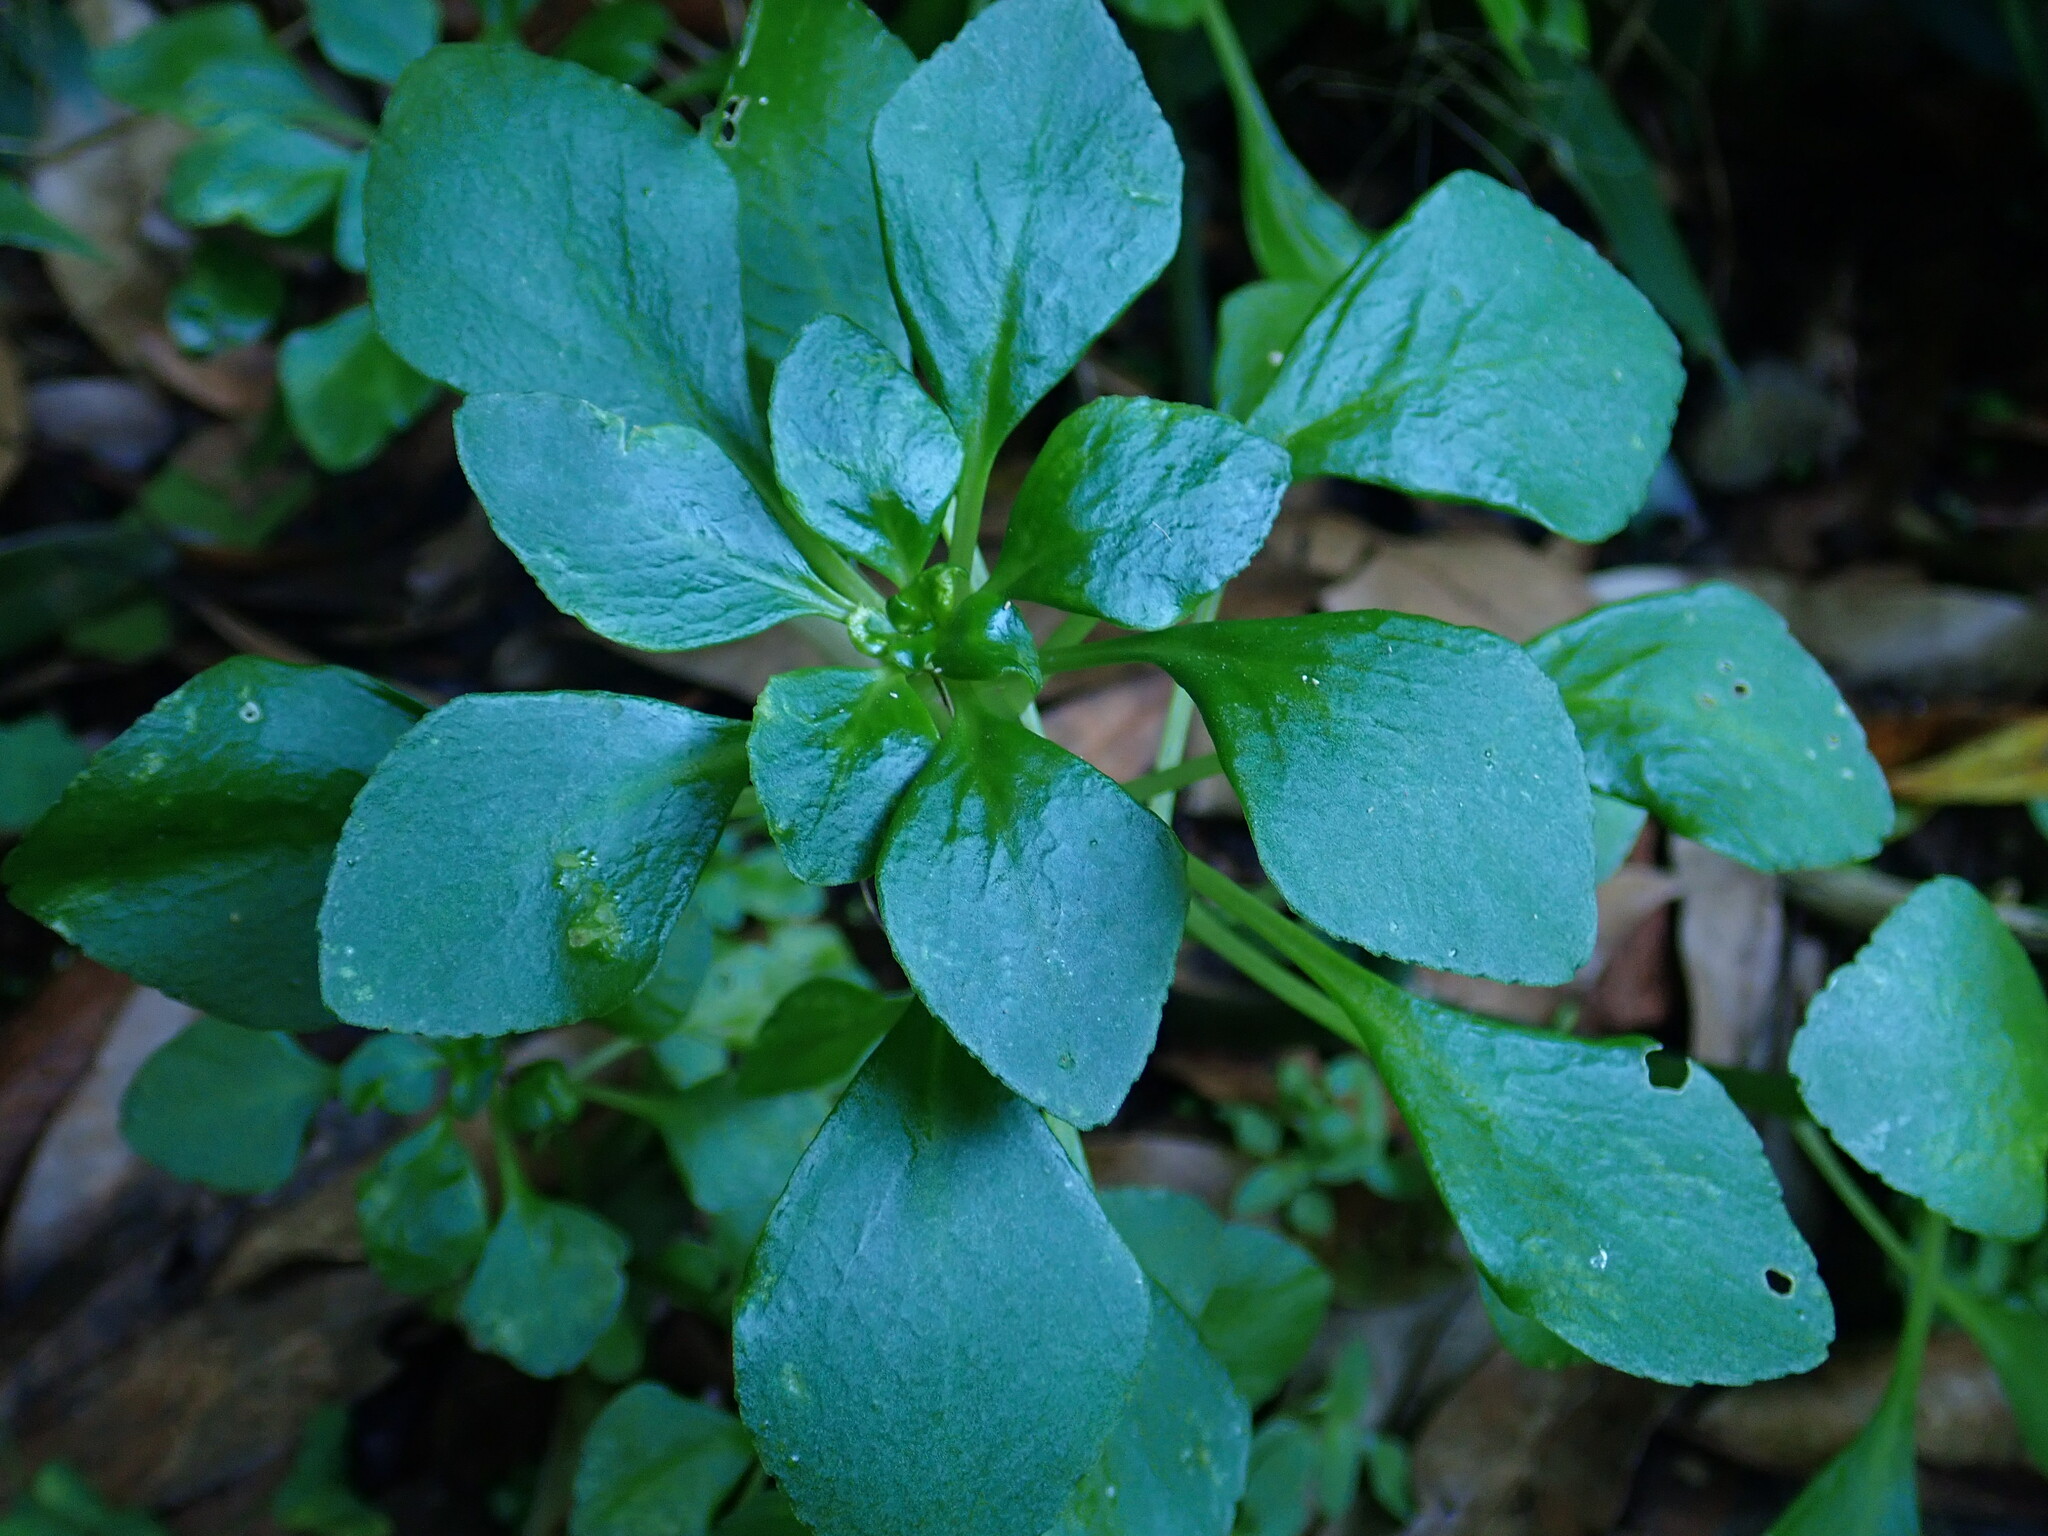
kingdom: Plantae
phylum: Tracheophyta
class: Magnoliopsida
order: Saxifragales
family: Crassulaceae
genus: Aichryson
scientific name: Aichryson pachycaulon
